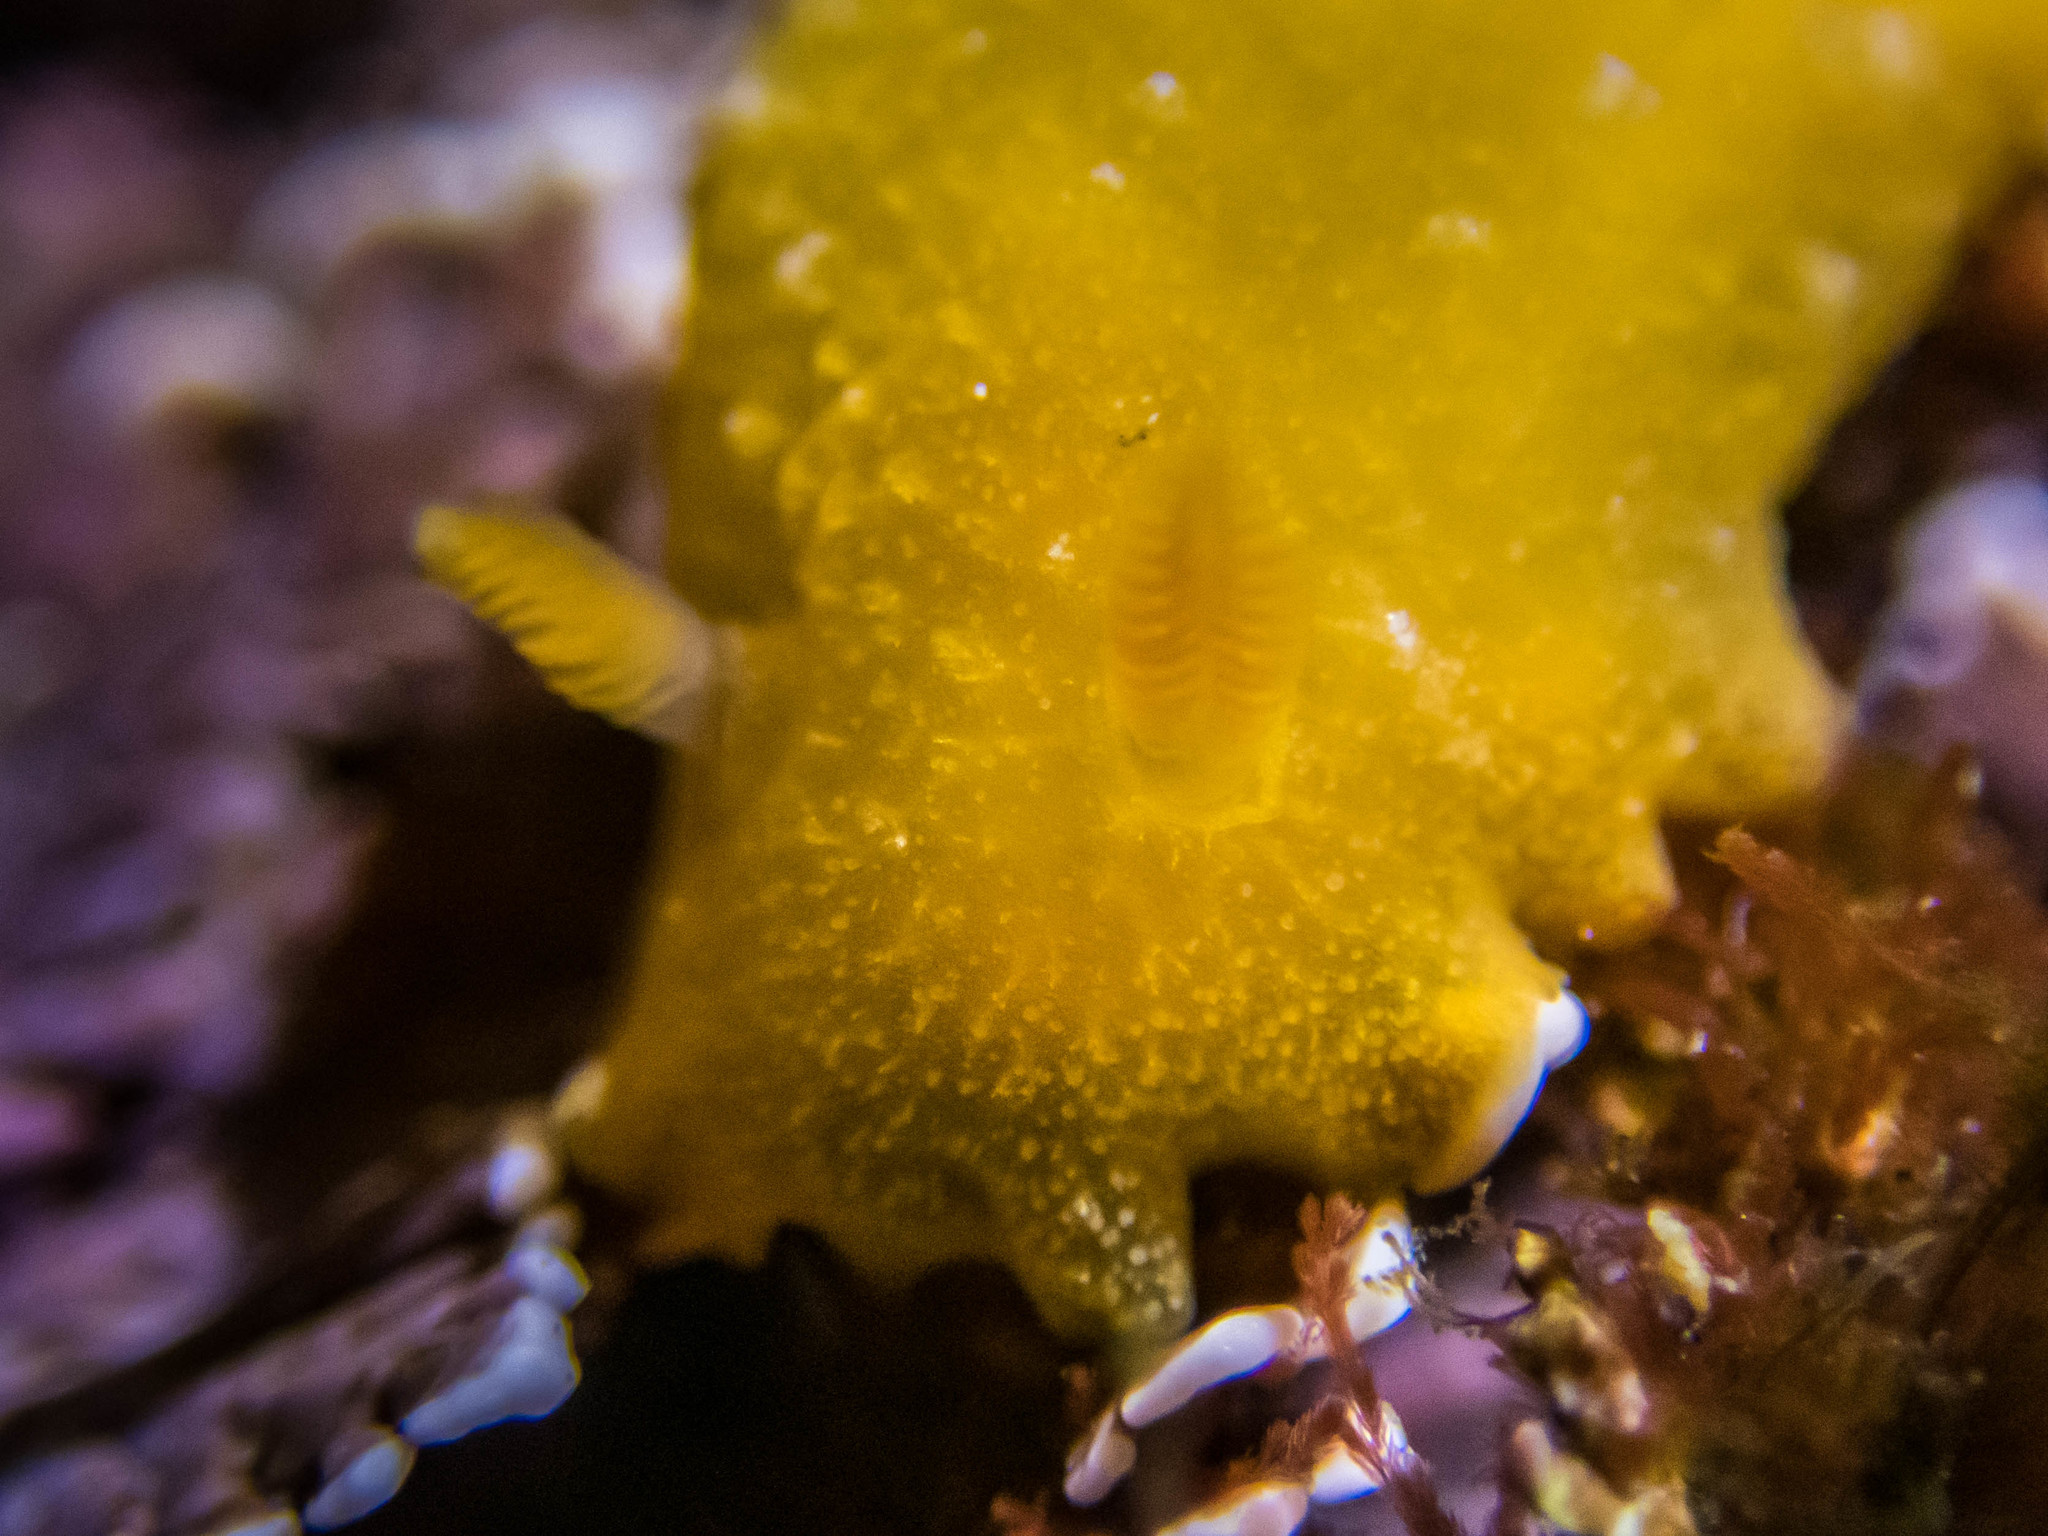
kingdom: Animalia
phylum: Mollusca
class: Gastropoda
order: Nudibranchia
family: Dendrodorididae
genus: Doriopsilla
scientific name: Doriopsilla carneola
